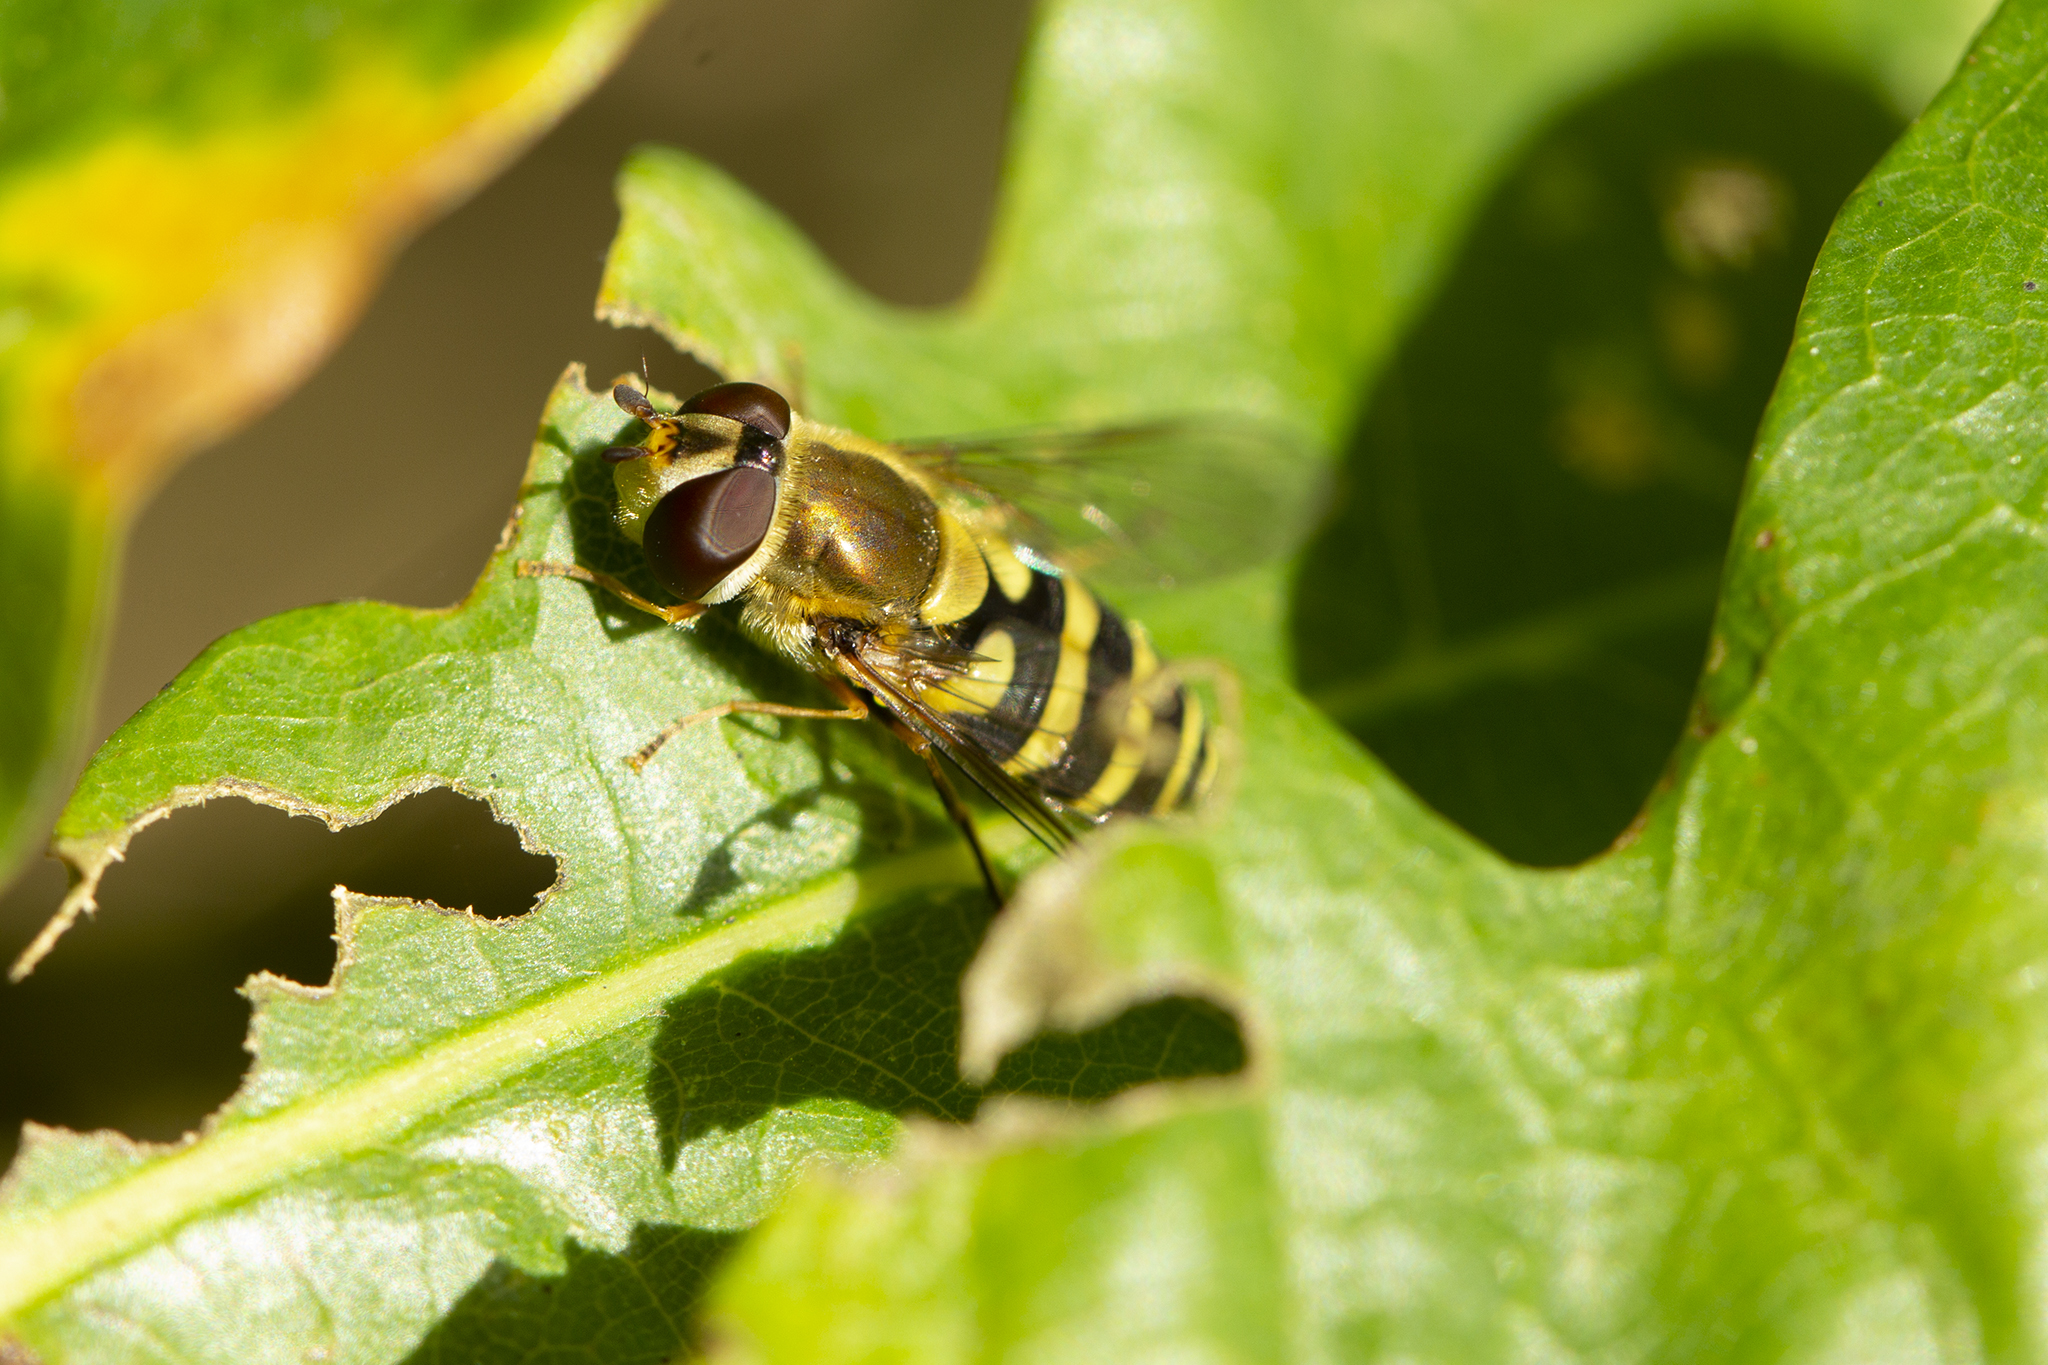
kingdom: Animalia
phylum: Arthropoda
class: Insecta
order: Diptera
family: Syrphidae
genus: Syrphus
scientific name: Syrphus ribesii
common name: Common flower fly
